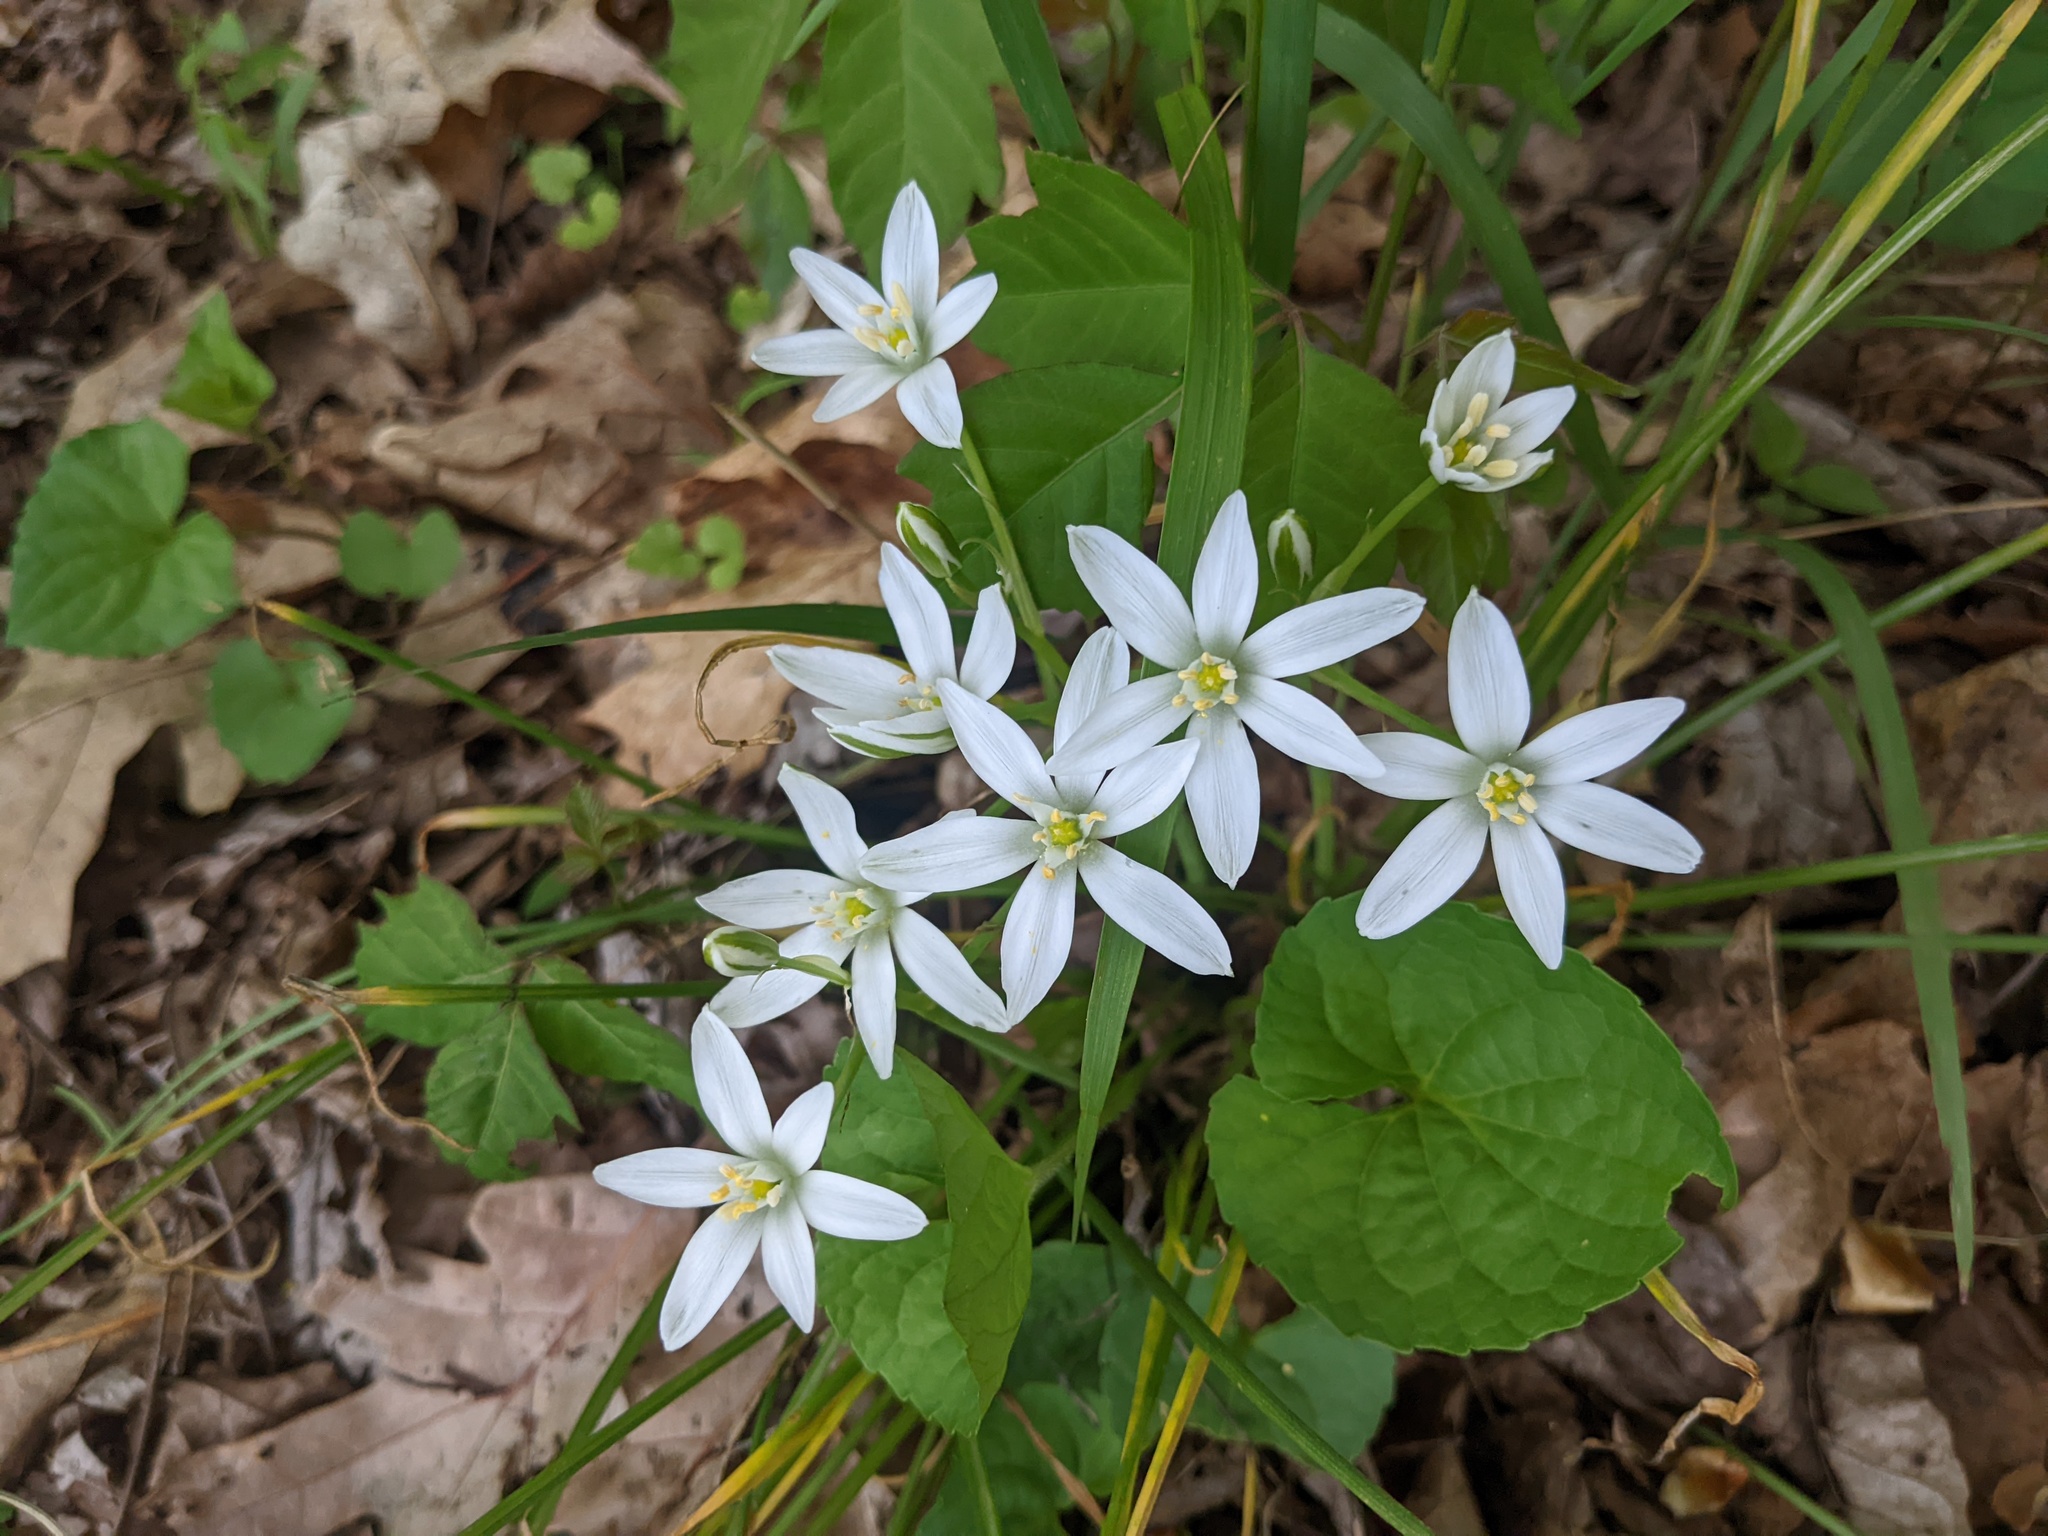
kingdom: Plantae
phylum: Tracheophyta
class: Liliopsida
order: Asparagales
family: Asparagaceae
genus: Ornithogalum
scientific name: Ornithogalum umbellatum
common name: Garden star-of-bethlehem
